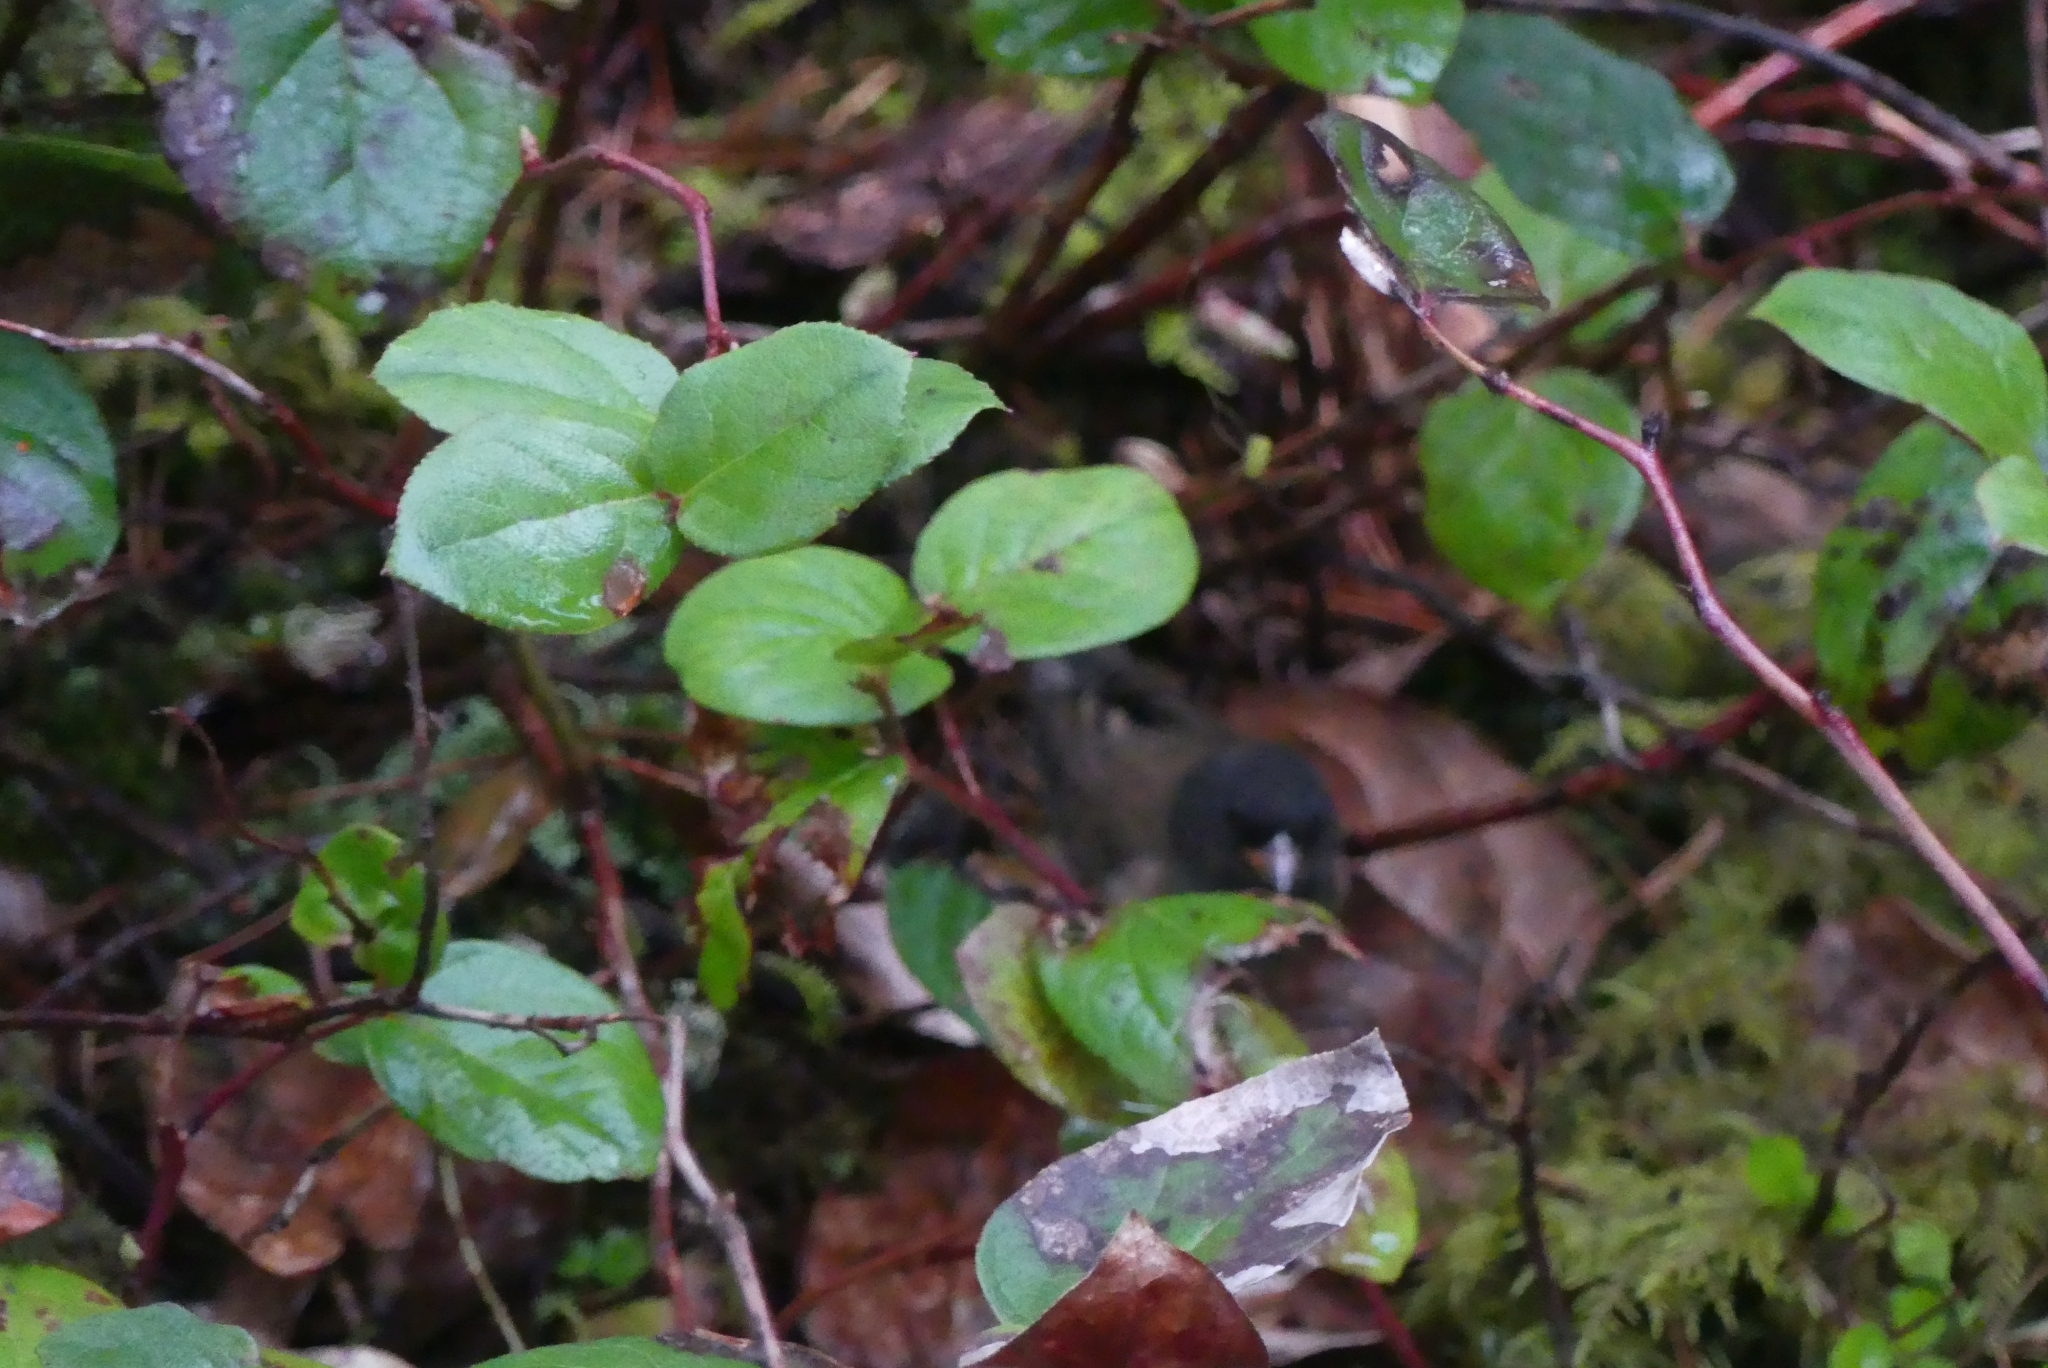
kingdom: Animalia
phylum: Chordata
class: Aves
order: Passeriformes
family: Passerellidae
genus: Junco
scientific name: Junco hyemalis
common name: Dark-eyed junco
